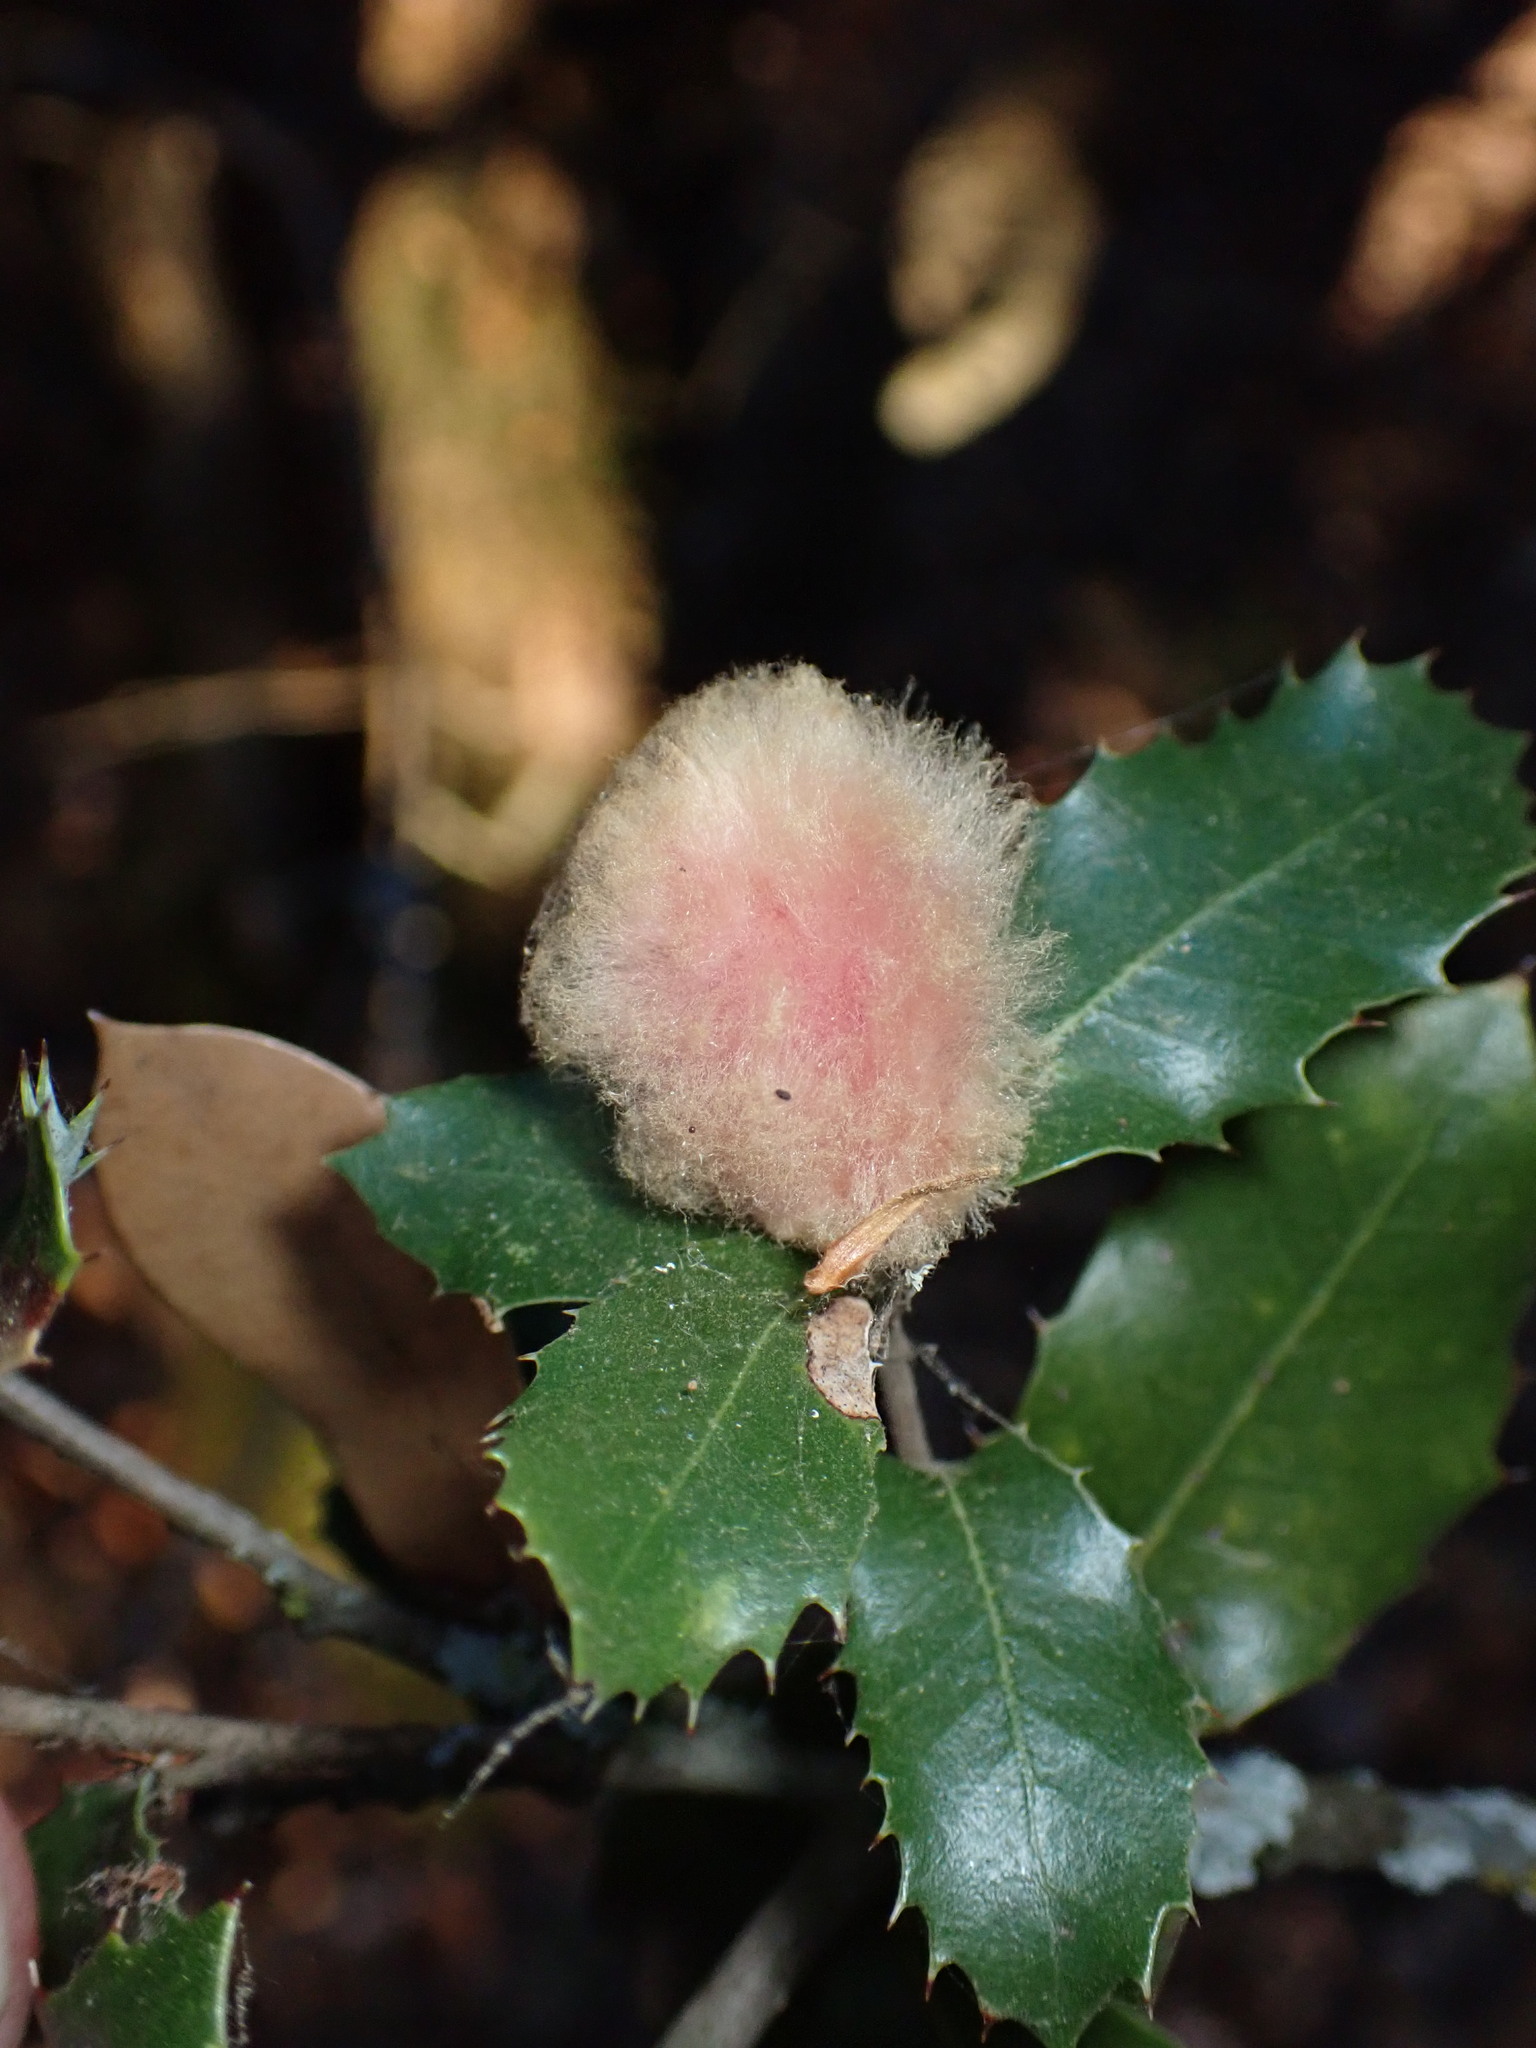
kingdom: Animalia
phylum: Arthropoda
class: Insecta
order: Hymenoptera
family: Cynipidae
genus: Heteroecus
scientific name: Heteroecus
